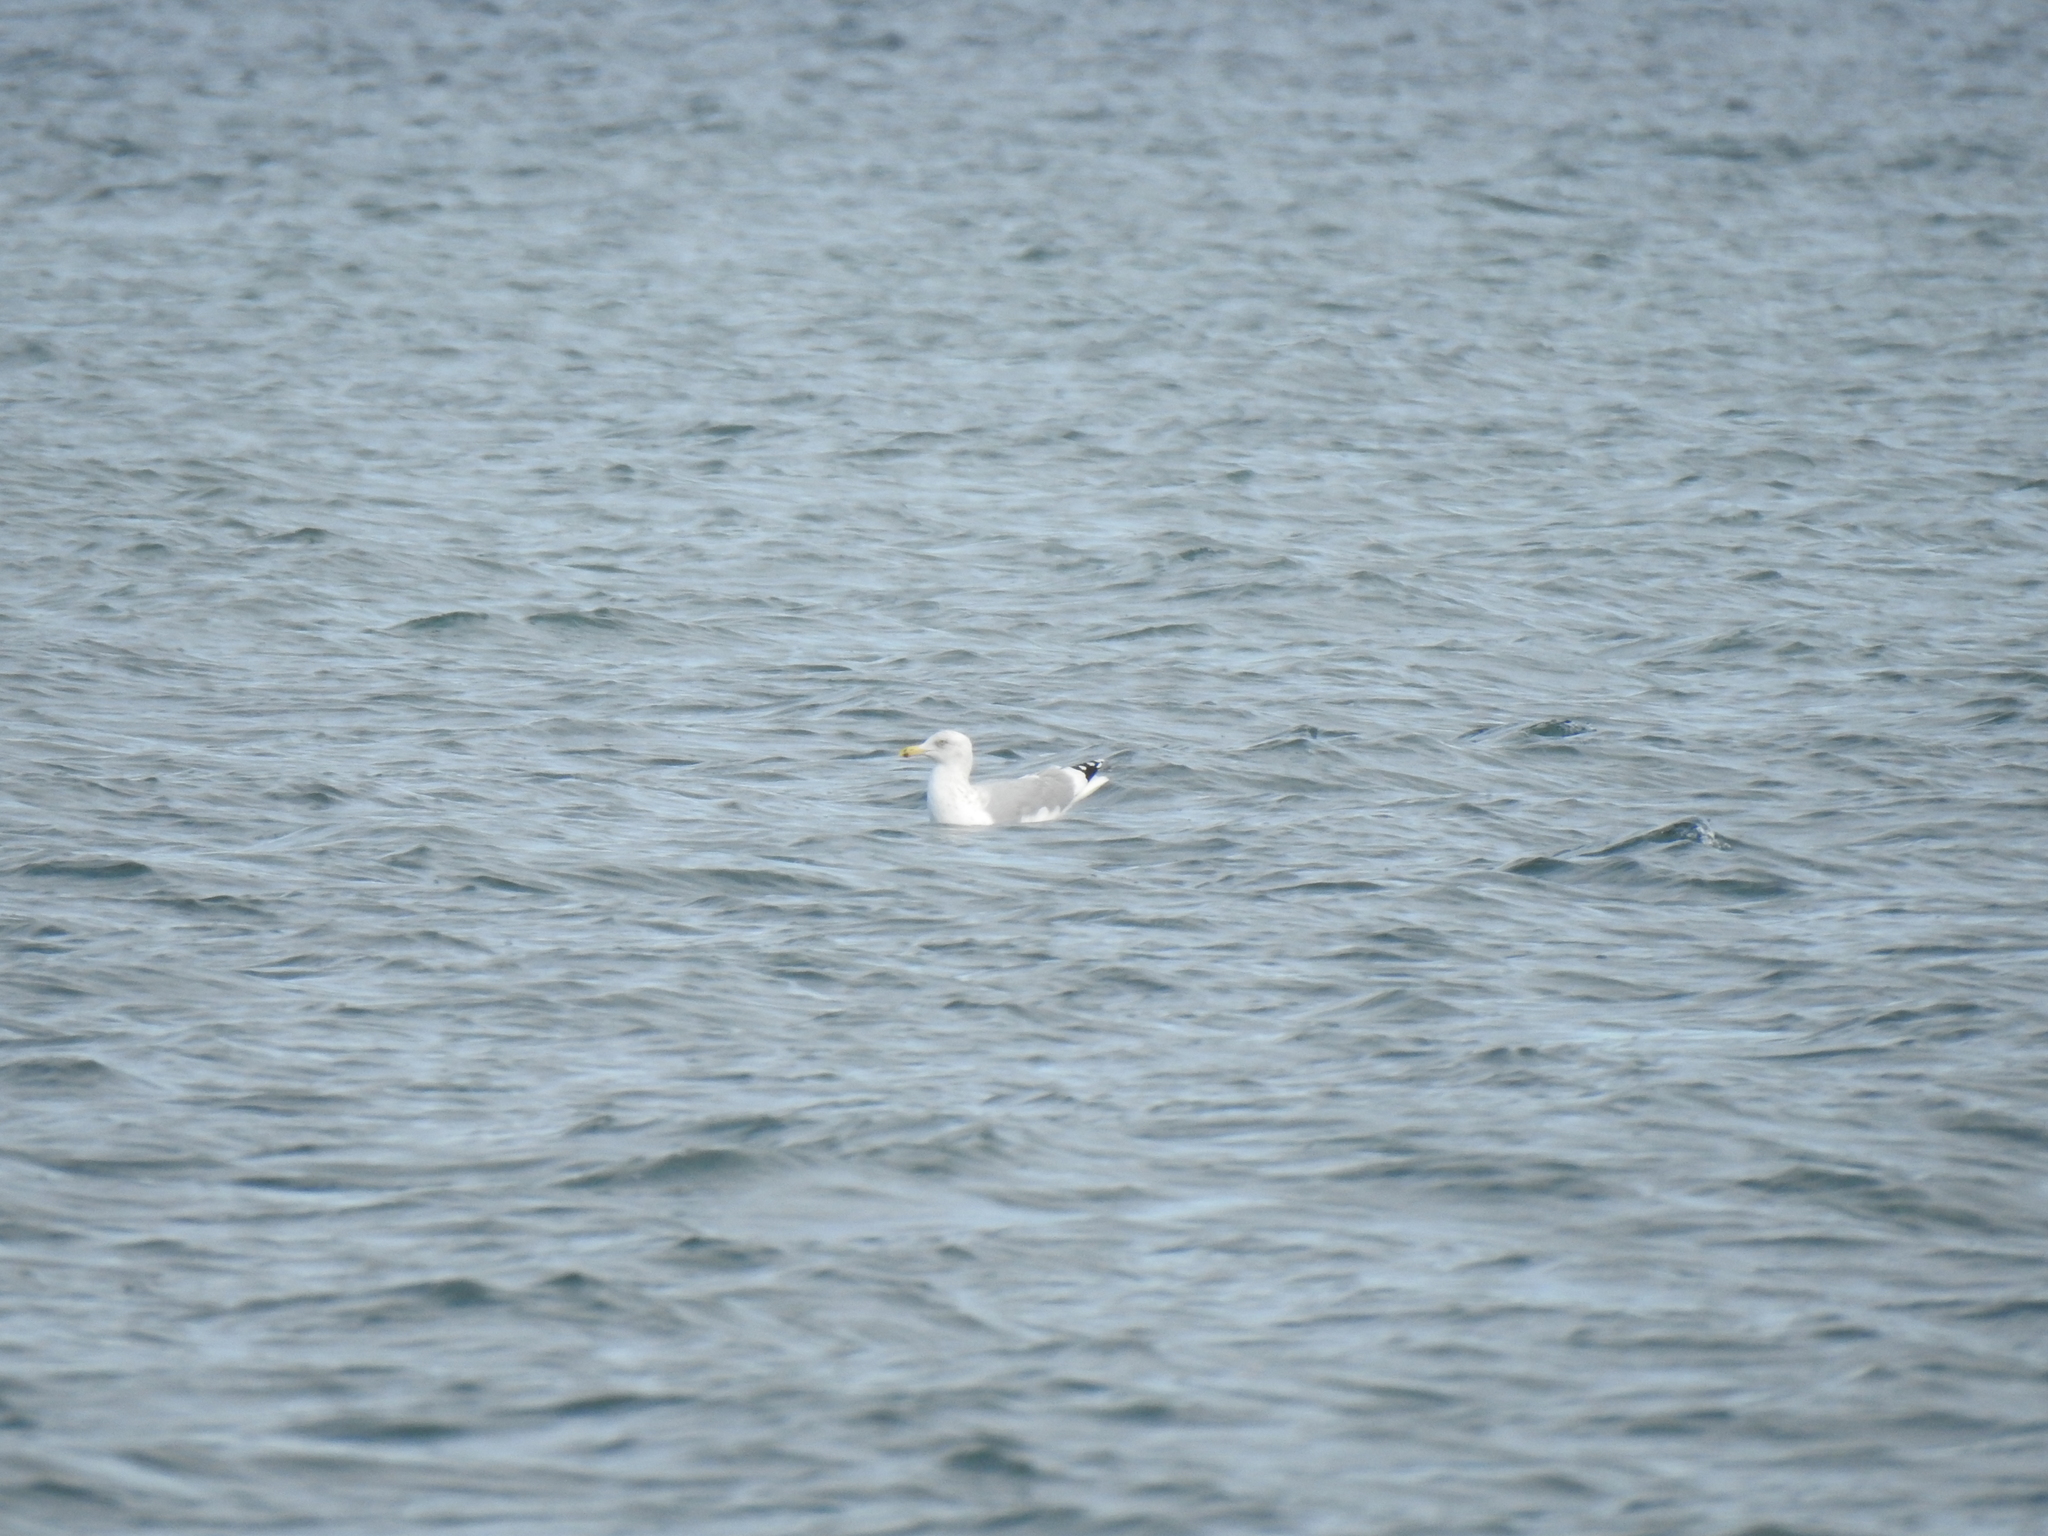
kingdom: Animalia
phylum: Chordata
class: Aves
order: Charadriiformes
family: Laridae
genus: Larus
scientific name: Larus argentatus
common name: Herring gull
